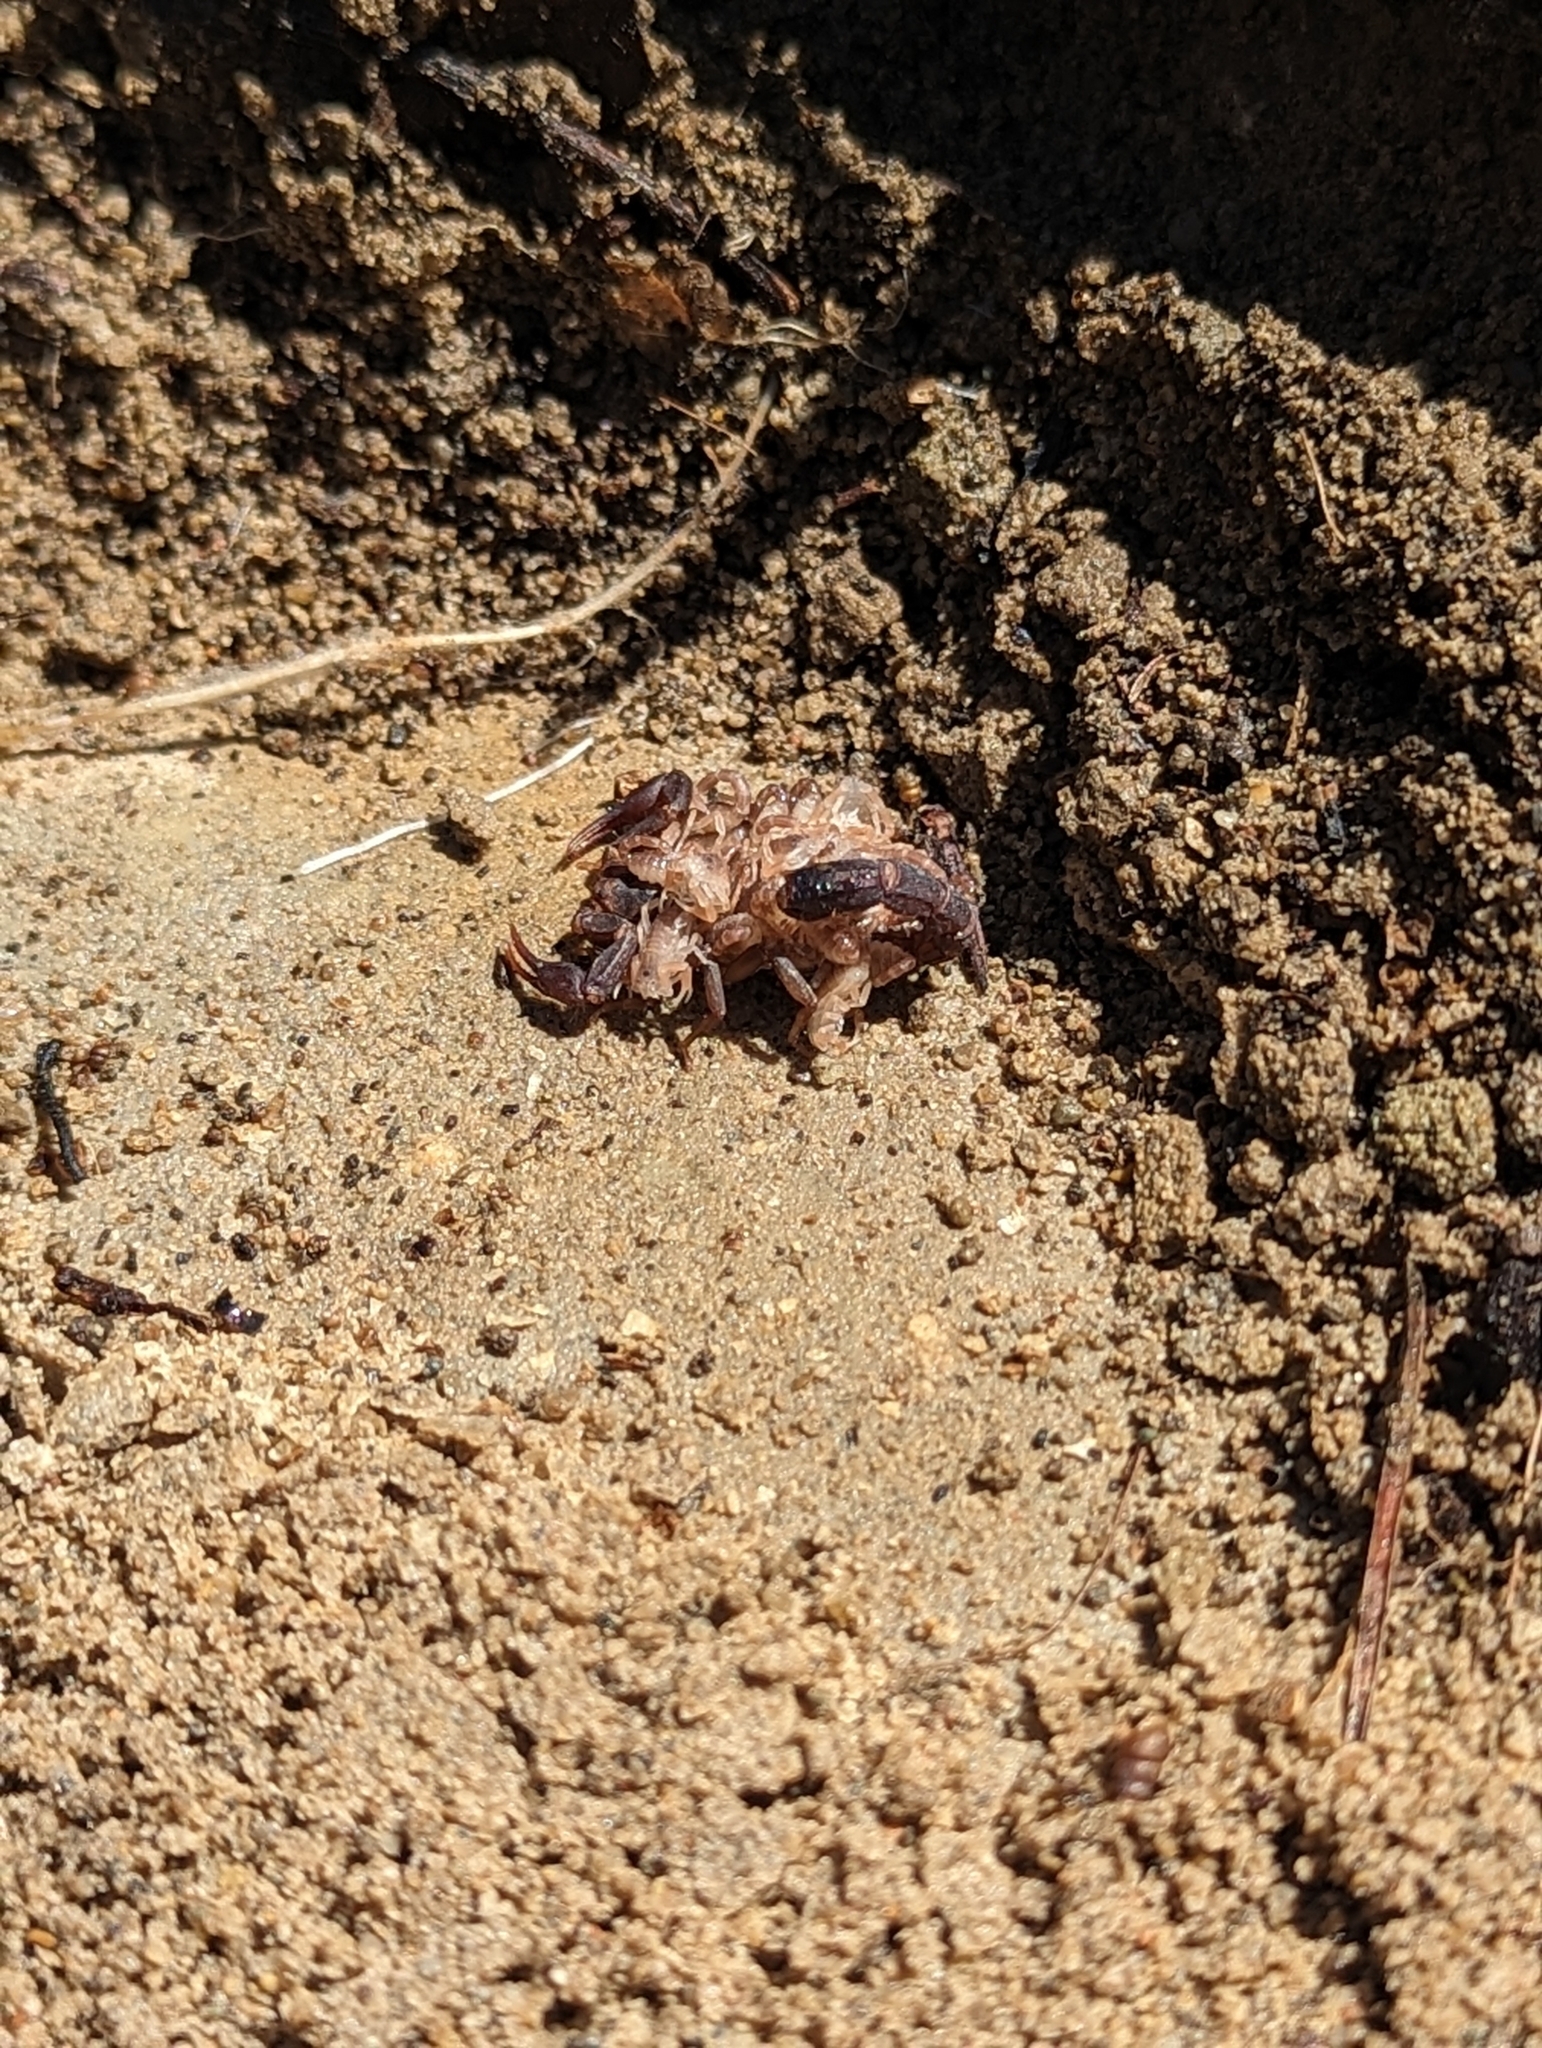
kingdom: Animalia
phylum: Arthropoda
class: Arachnida
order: Scorpiones
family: Vaejovidae
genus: Vaejovis
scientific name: Vaejovis carolinianus
